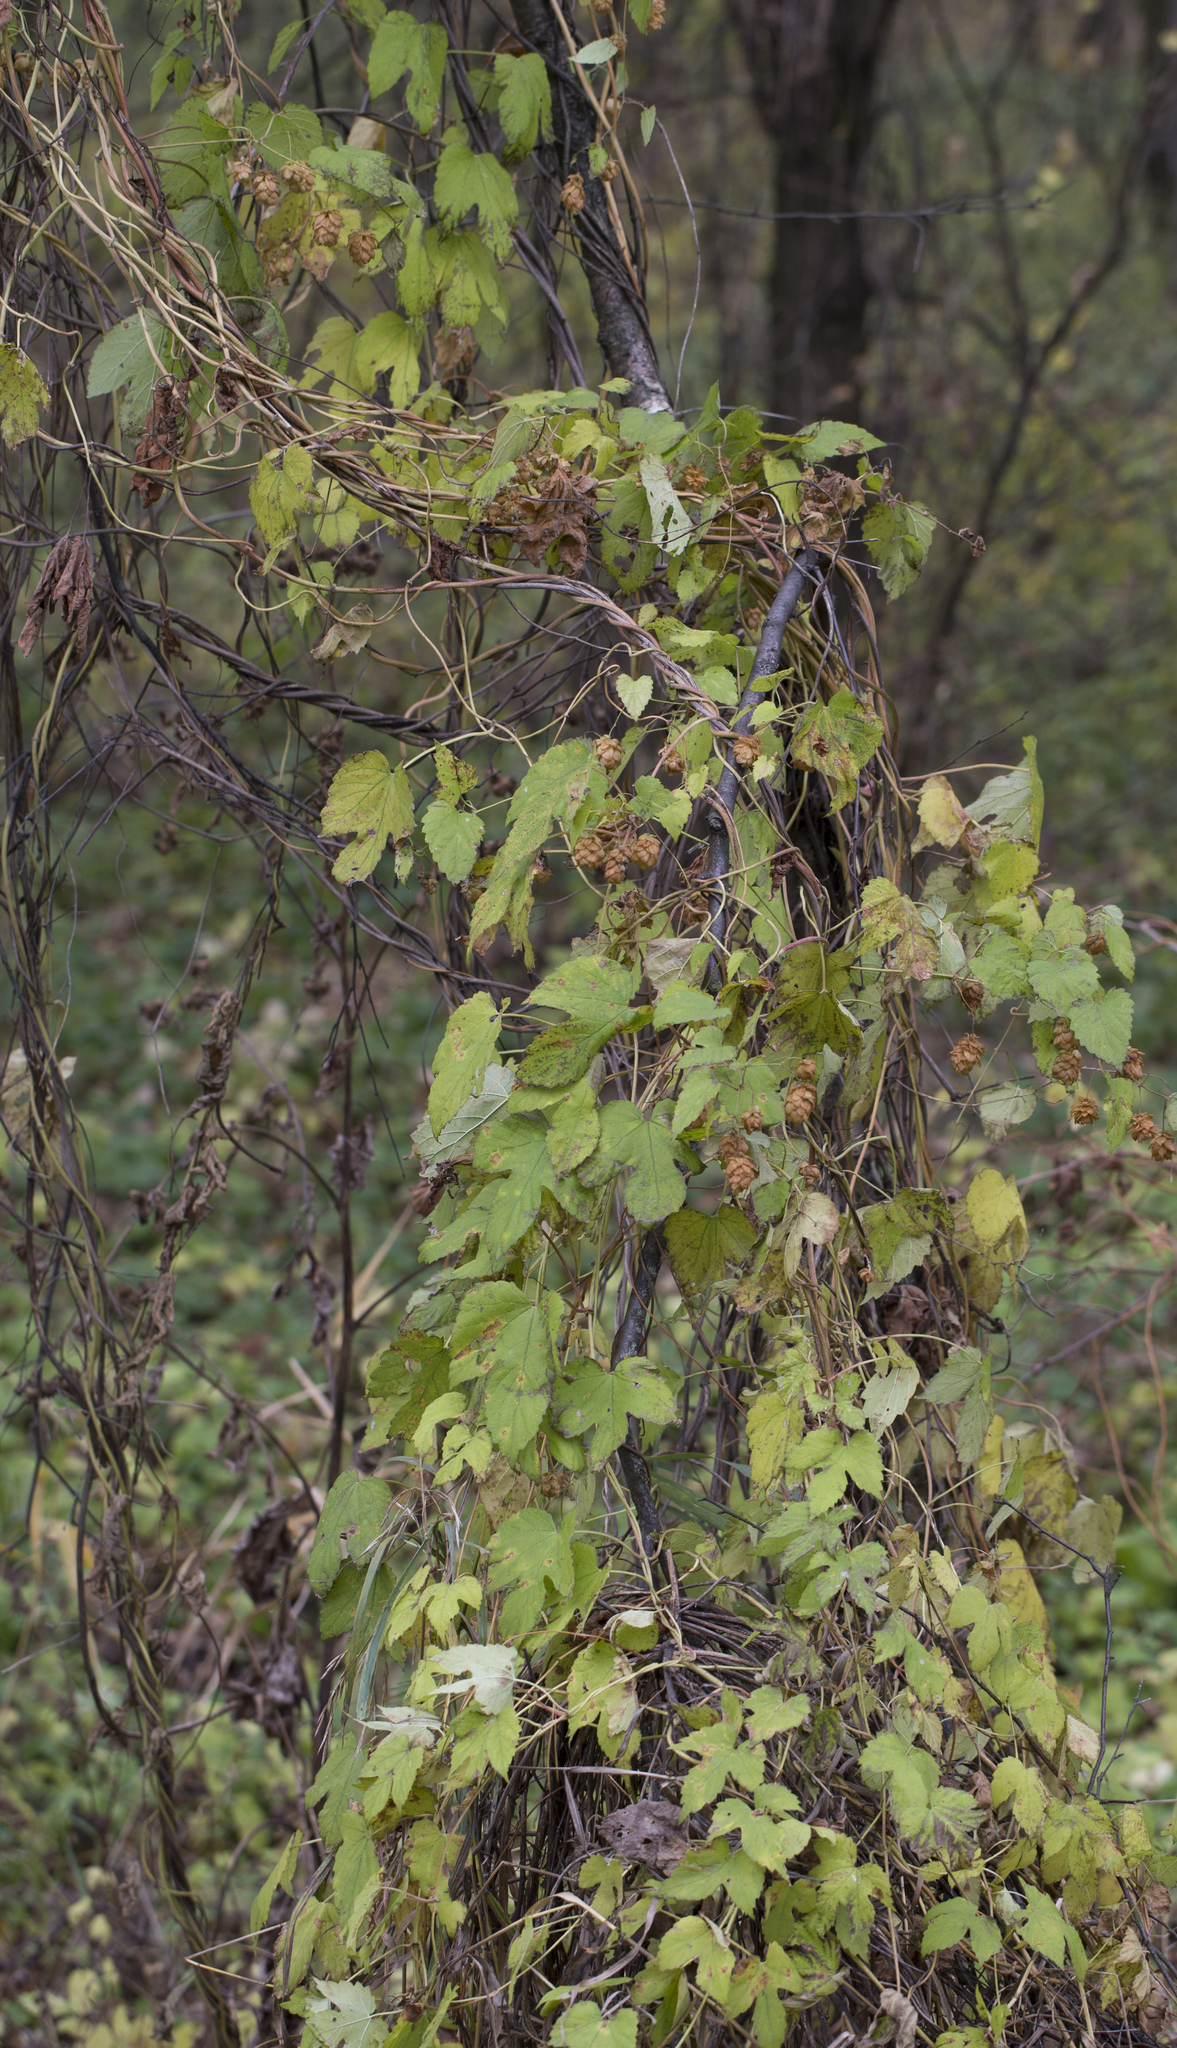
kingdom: Plantae
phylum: Tracheophyta
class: Magnoliopsida
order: Rosales
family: Cannabaceae
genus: Humulus
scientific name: Humulus lupulus
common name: Hop
